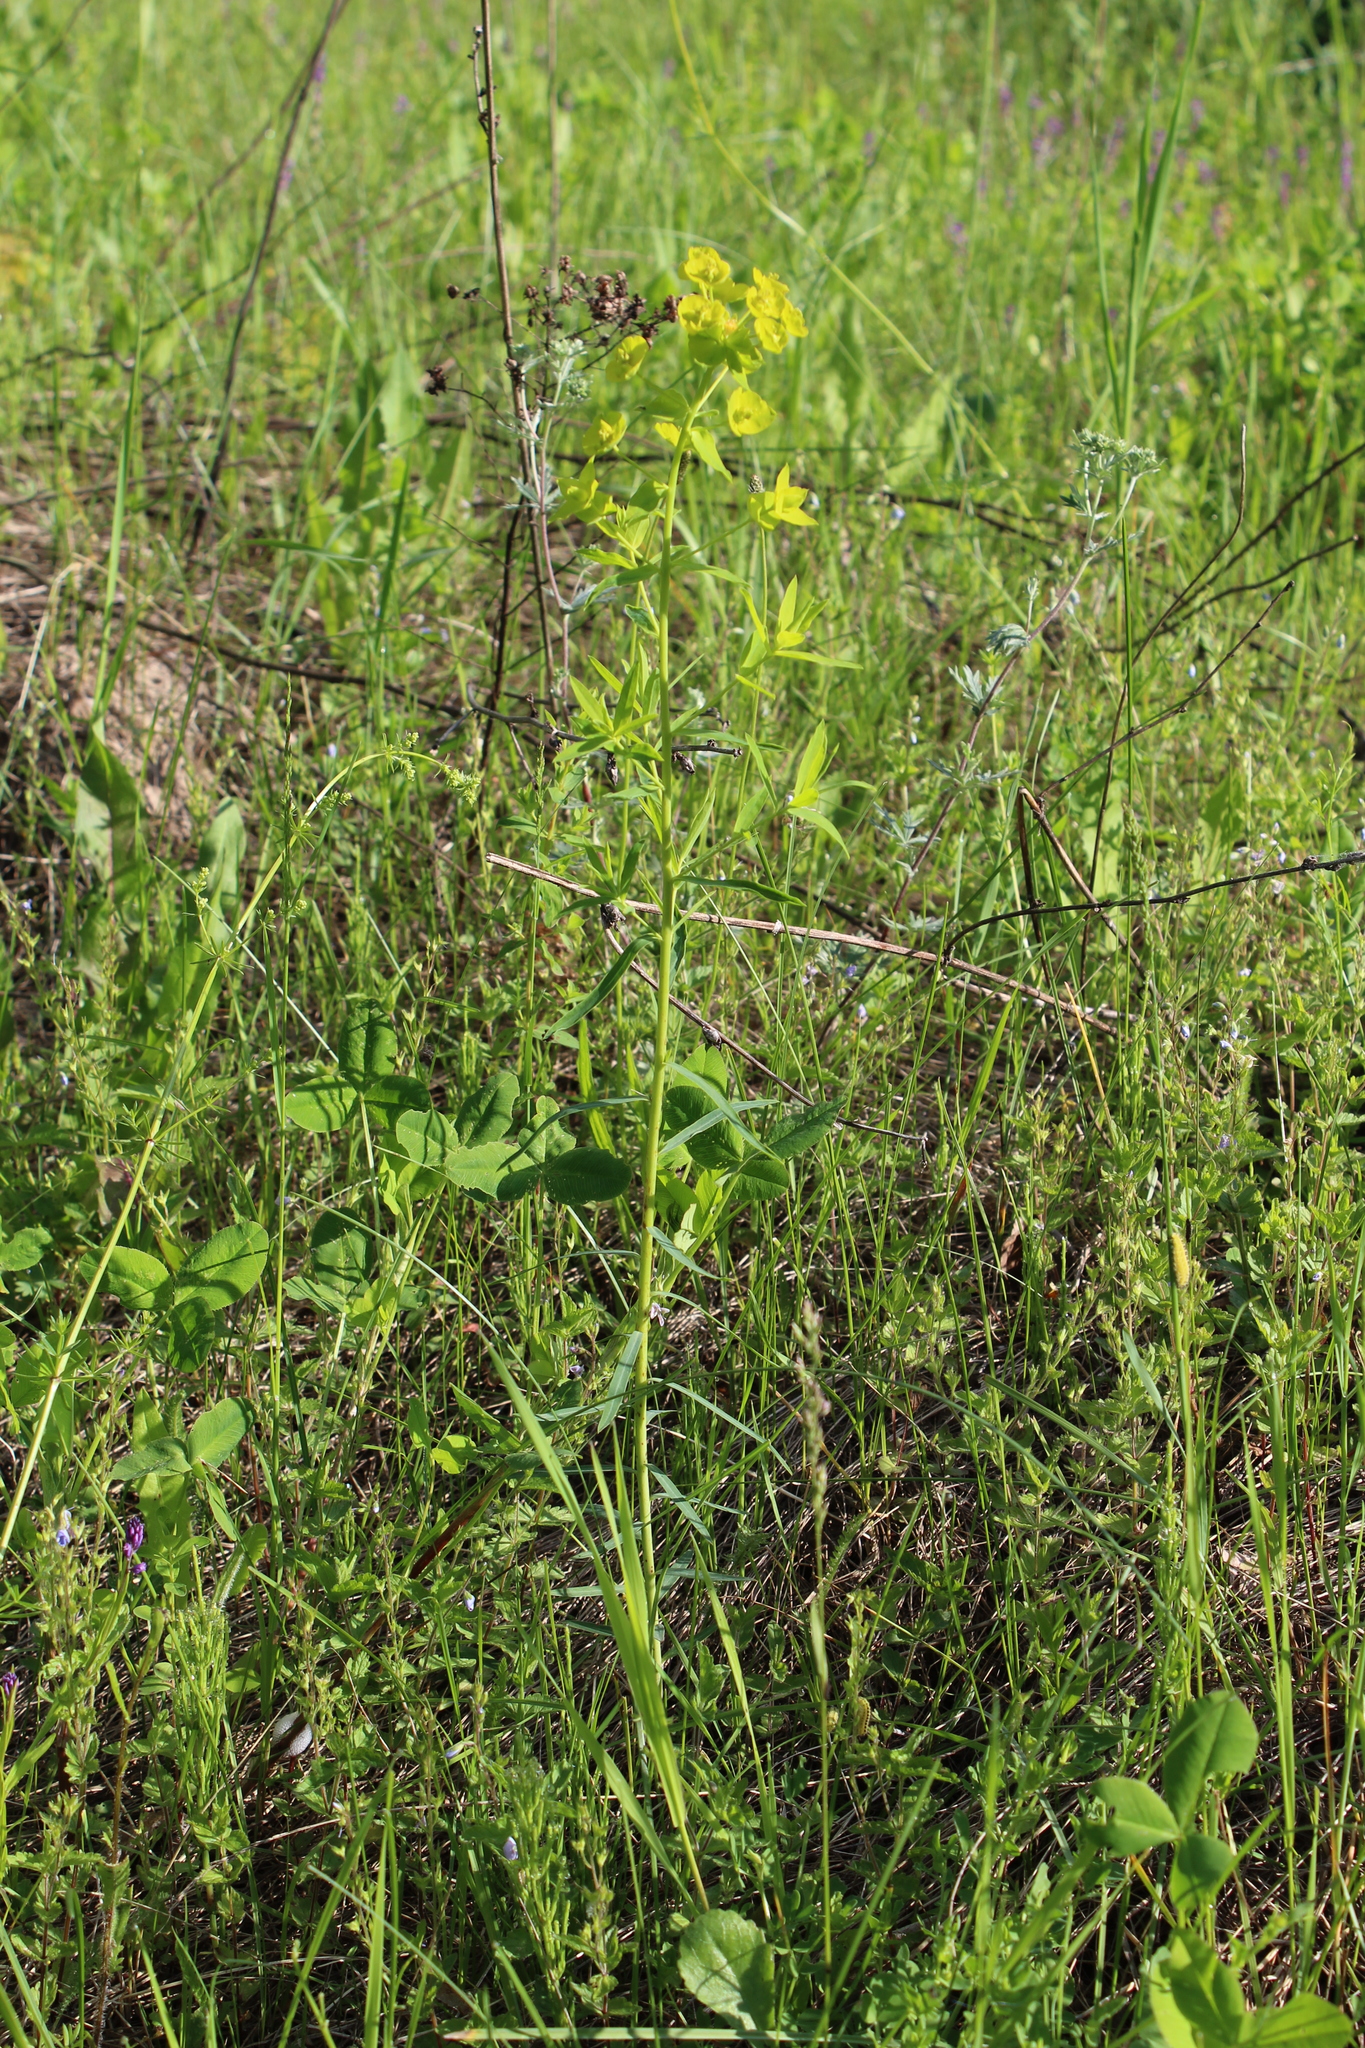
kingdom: Plantae
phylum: Tracheophyta
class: Magnoliopsida
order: Malpighiales
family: Euphorbiaceae
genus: Euphorbia
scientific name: Euphorbia virgata
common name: Leafy spurge
